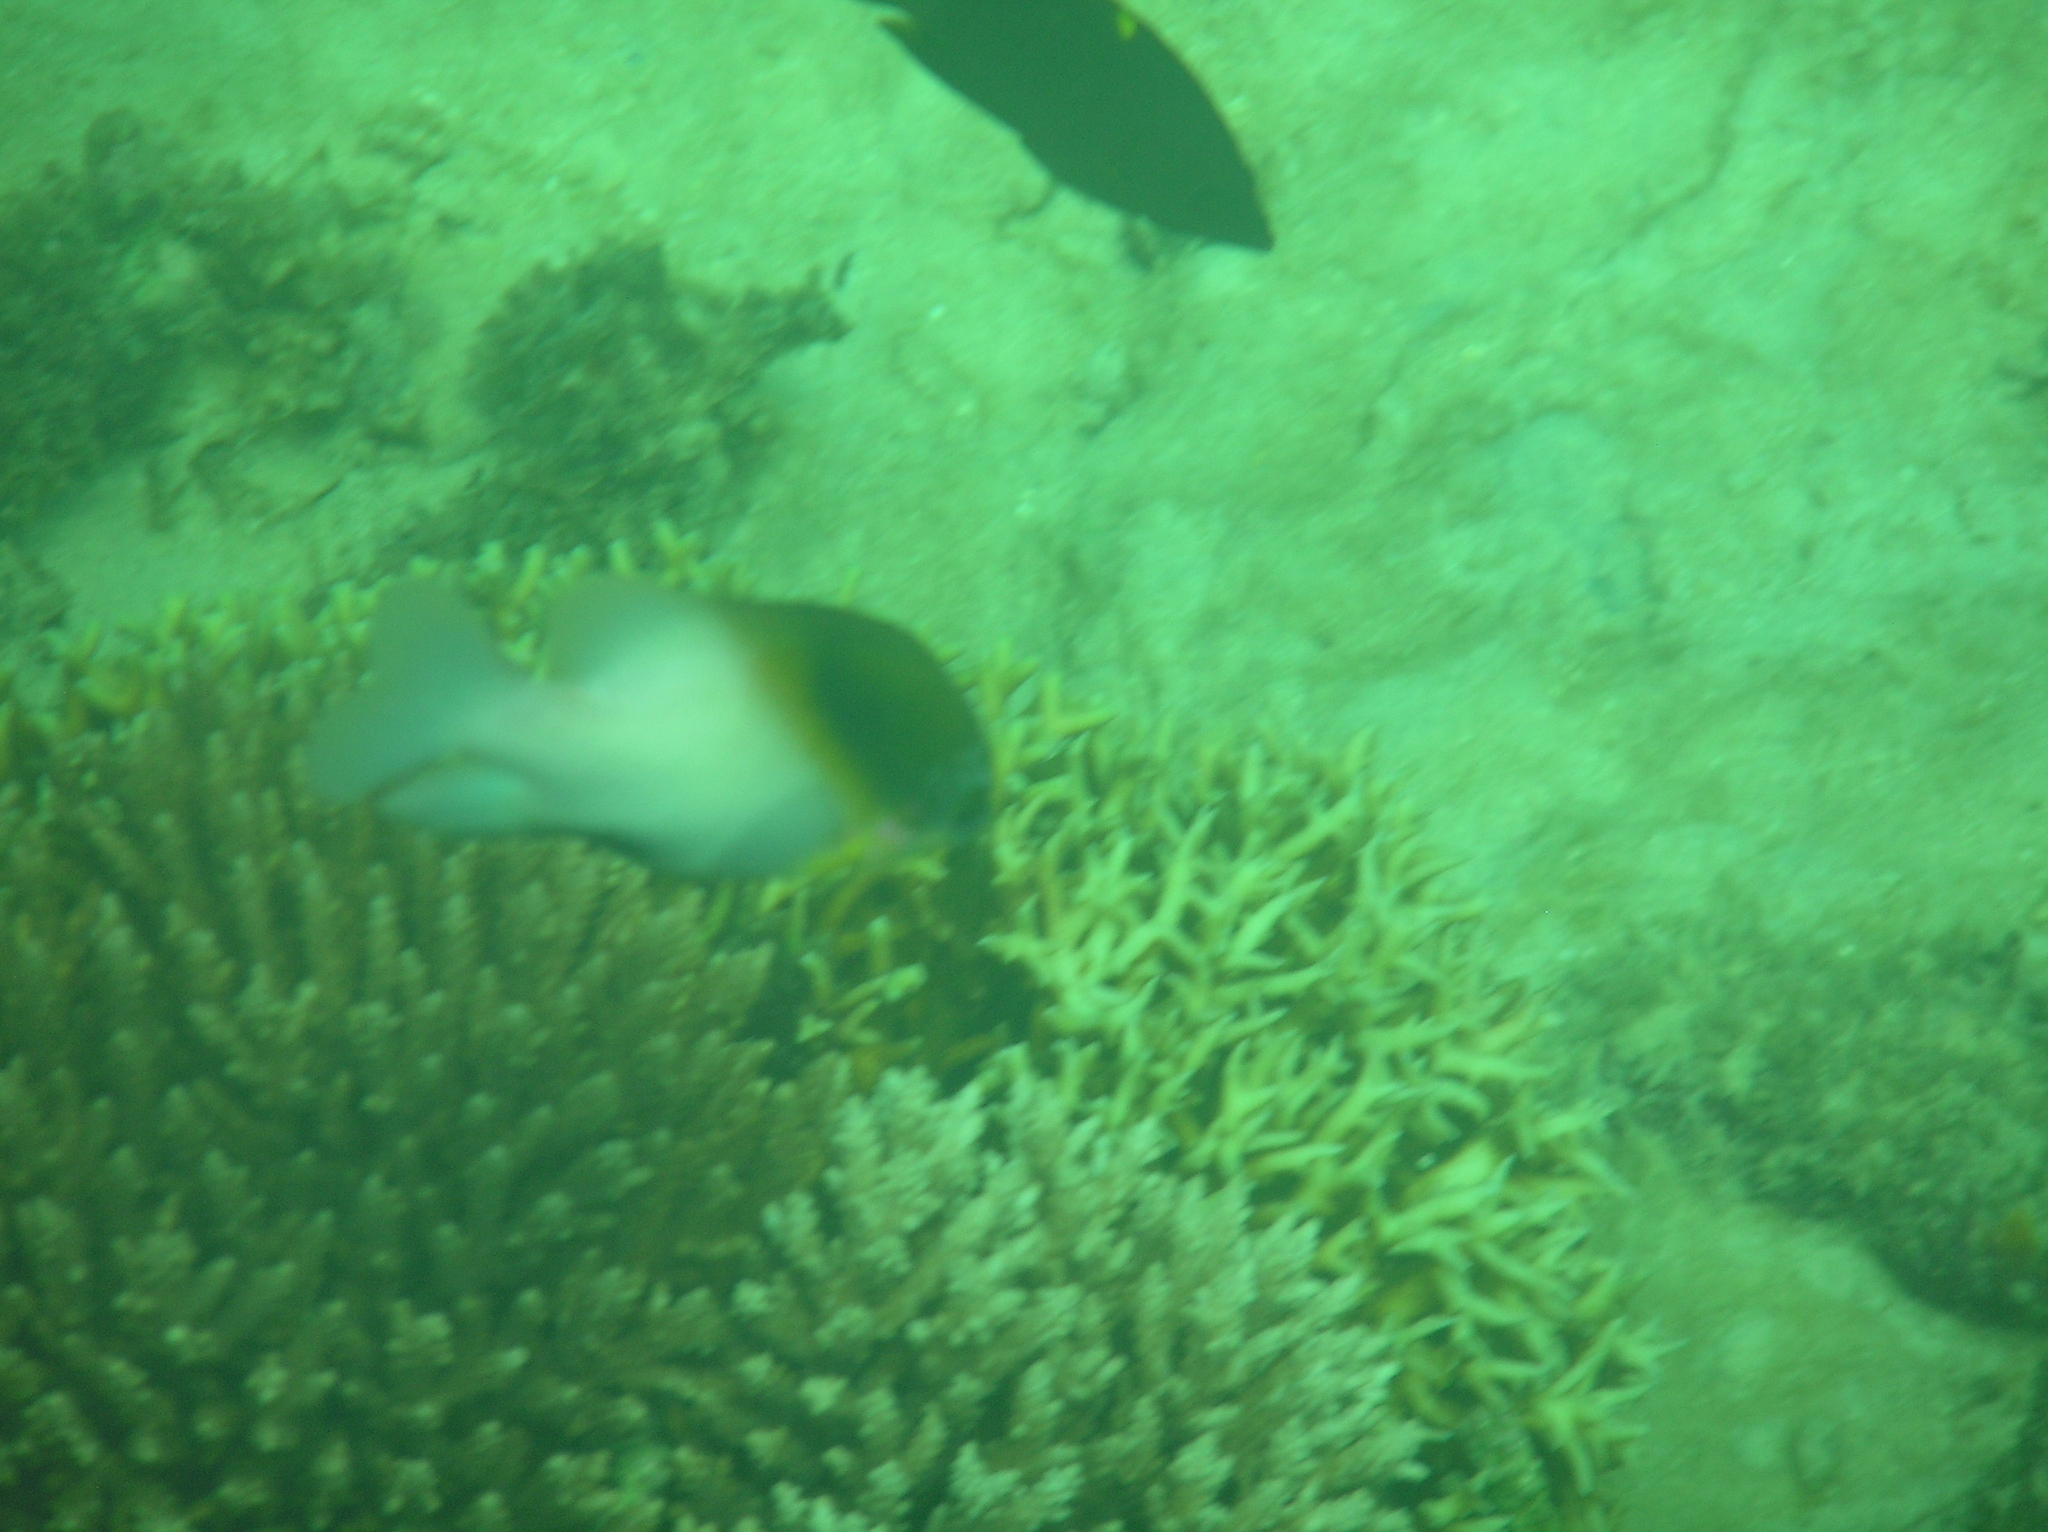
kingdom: Animalia
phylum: Chordata
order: Perciformes
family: Pomacentridae
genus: Dischistodus
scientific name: Dischistodus melanotus
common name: Black-vent damsel
